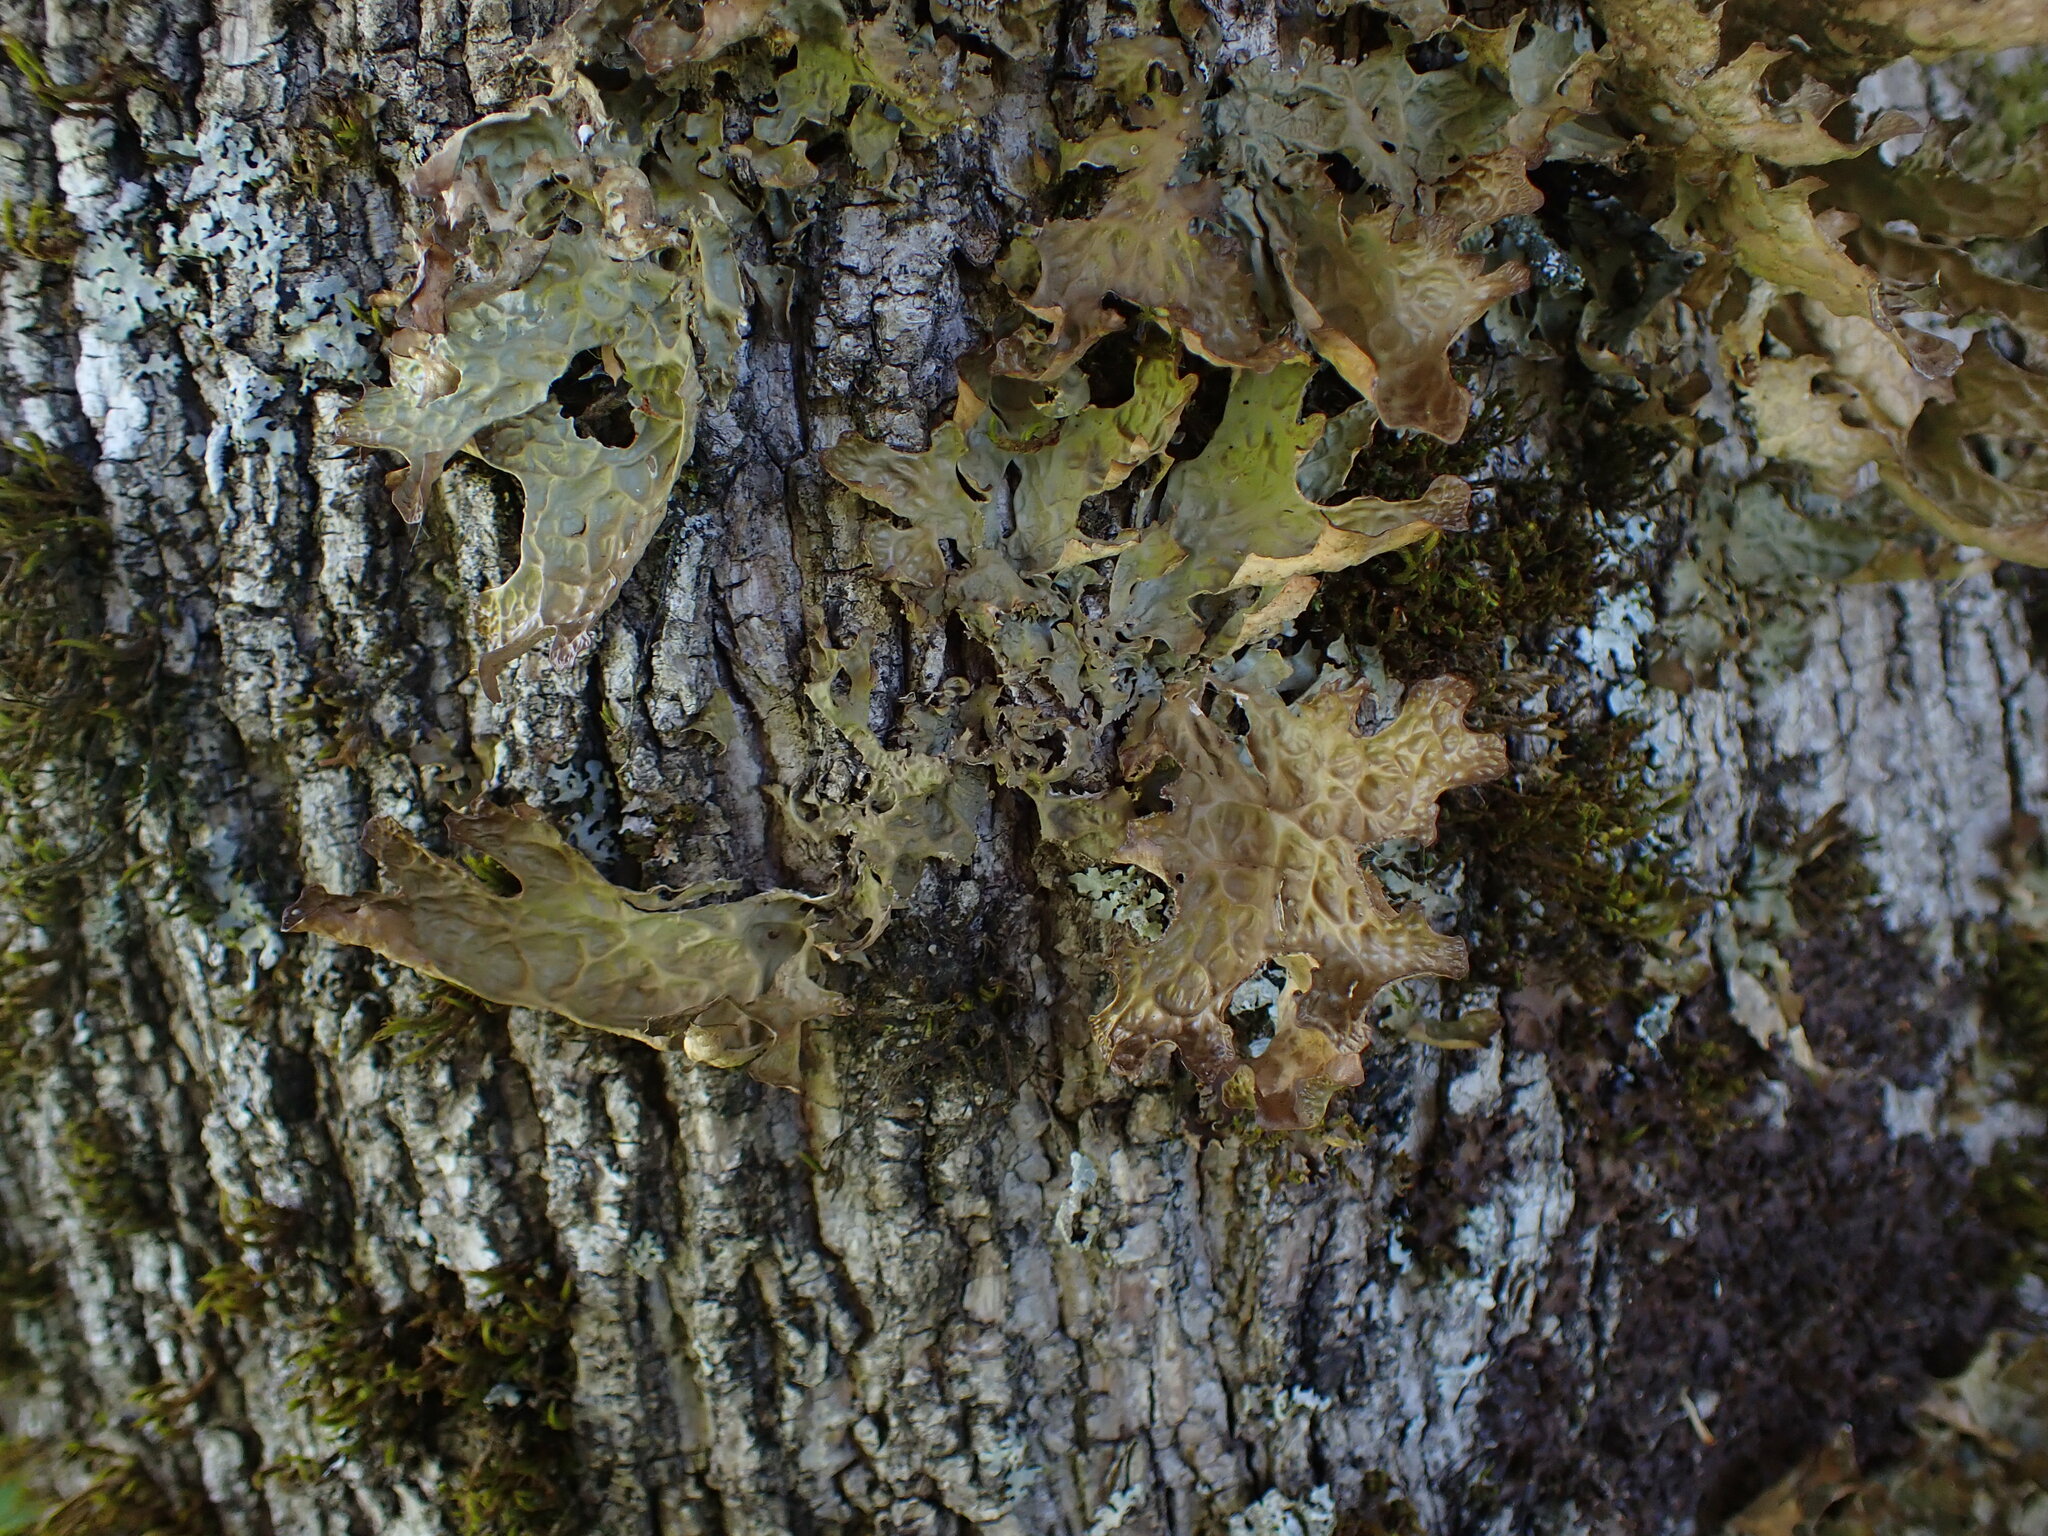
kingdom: Fungi
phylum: Ascomycota
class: Lecanoromycetes
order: Peltigerales
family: Lobariaceae
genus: Lobaria
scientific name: Lobaria pulmonaria
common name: Lungwort
